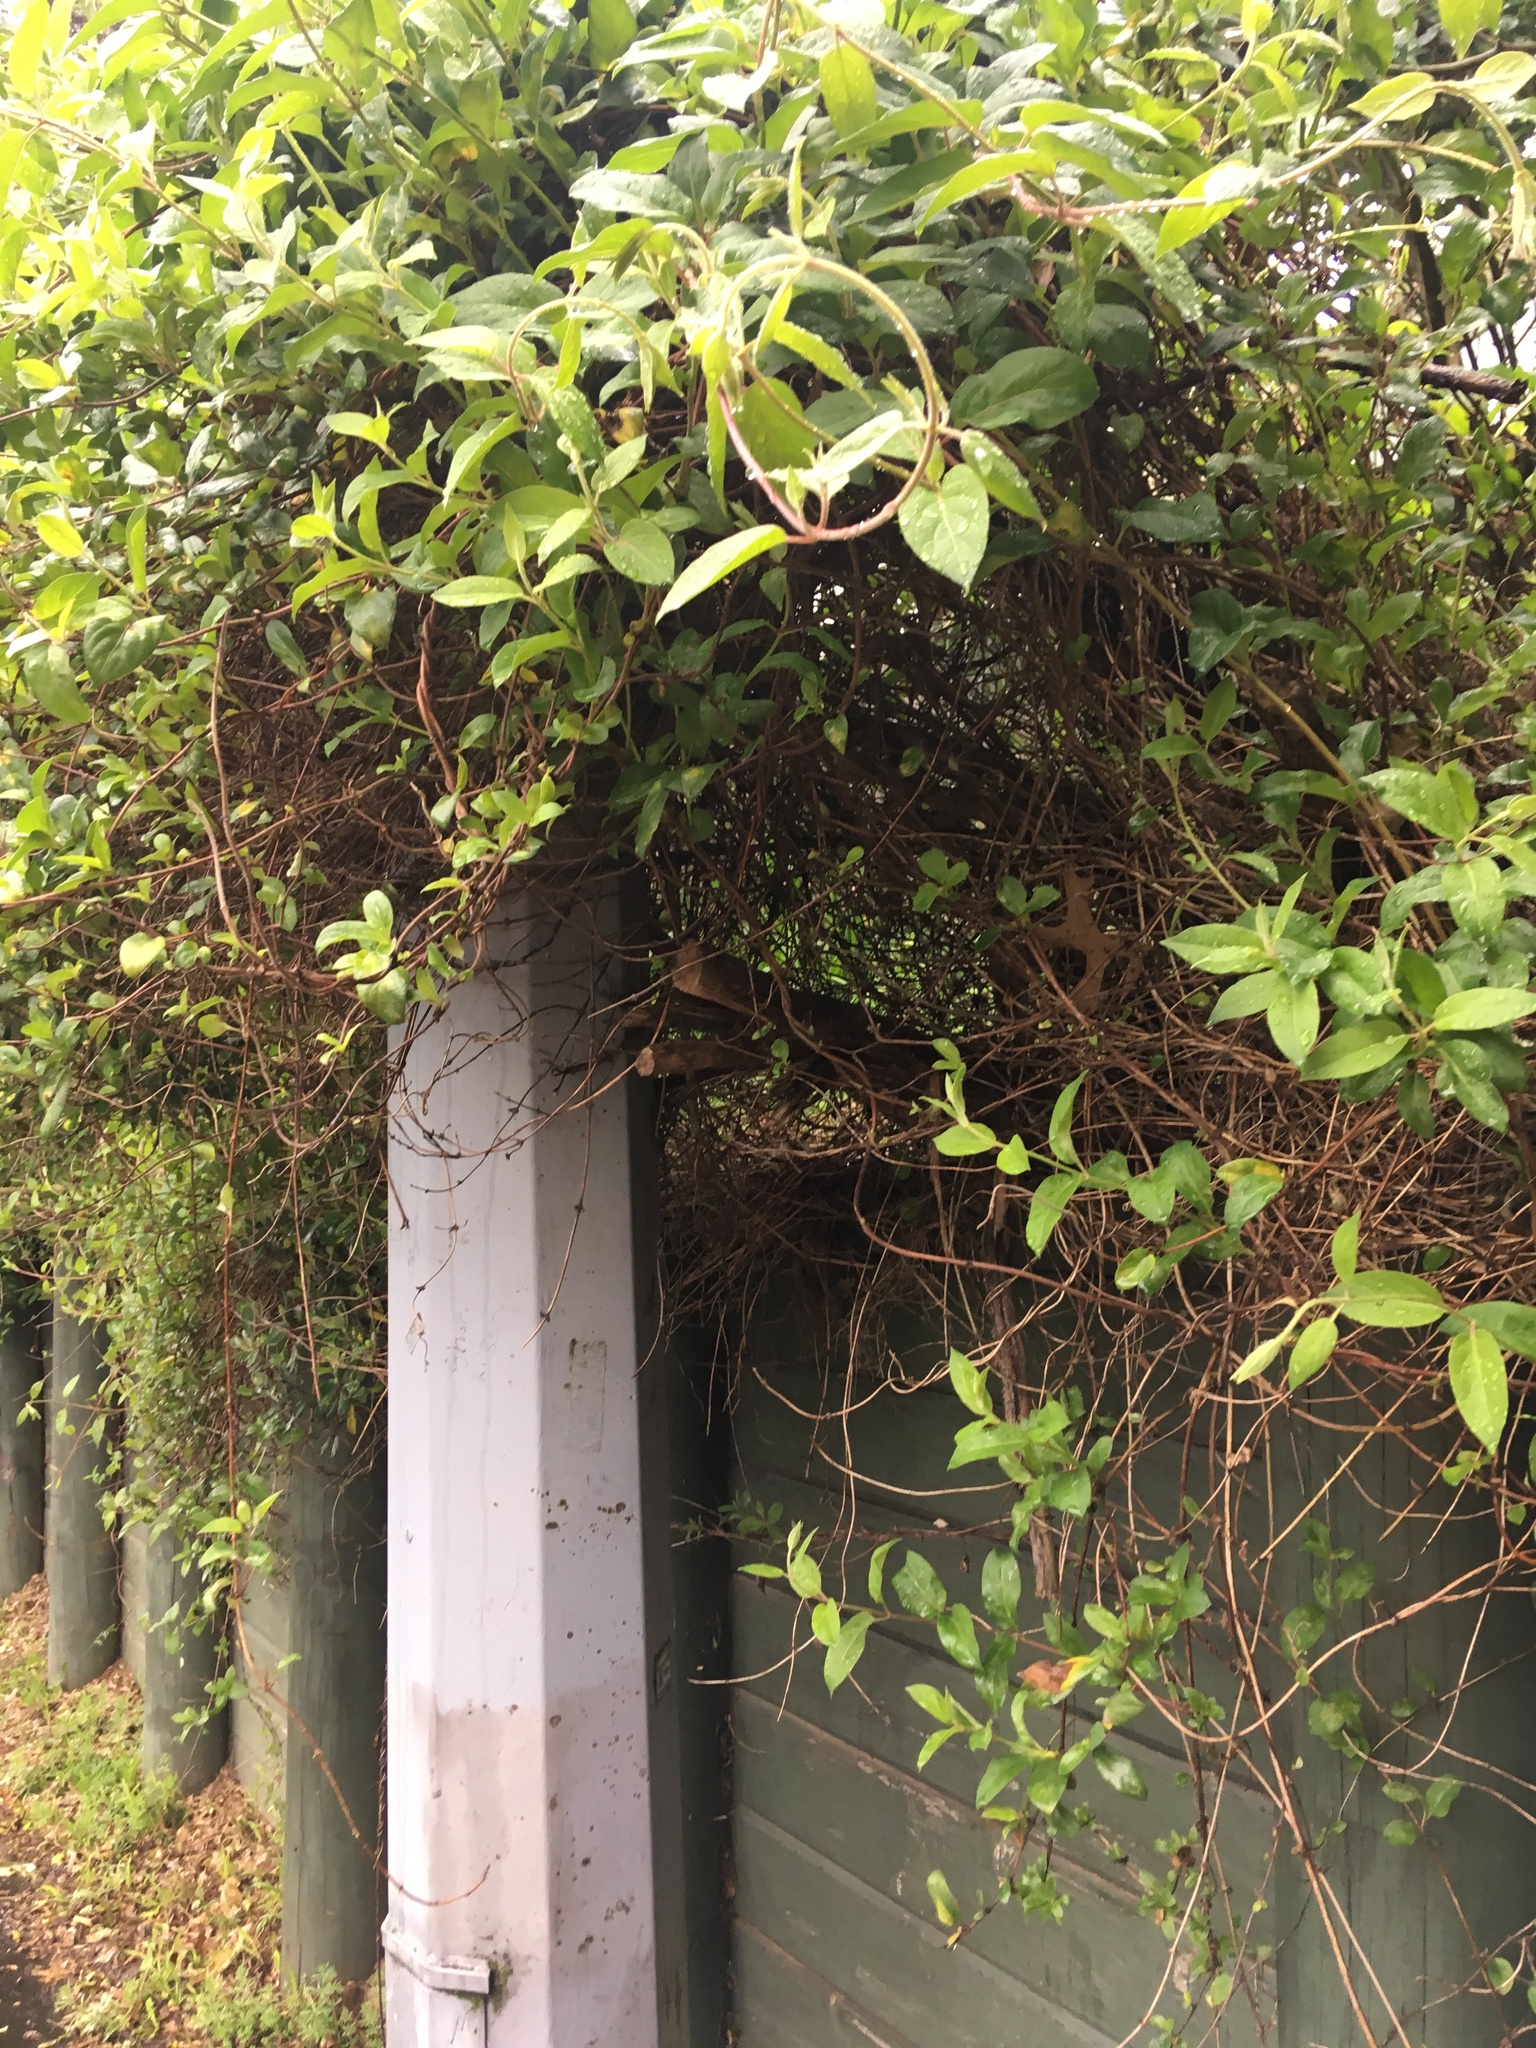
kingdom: Plantae
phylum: Tracheophyta
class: Magnoliopsida
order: Dipsacales
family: Caprifoliaceae
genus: Lonicera
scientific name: Lonicera japonica
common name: Japanese honeysuckle
